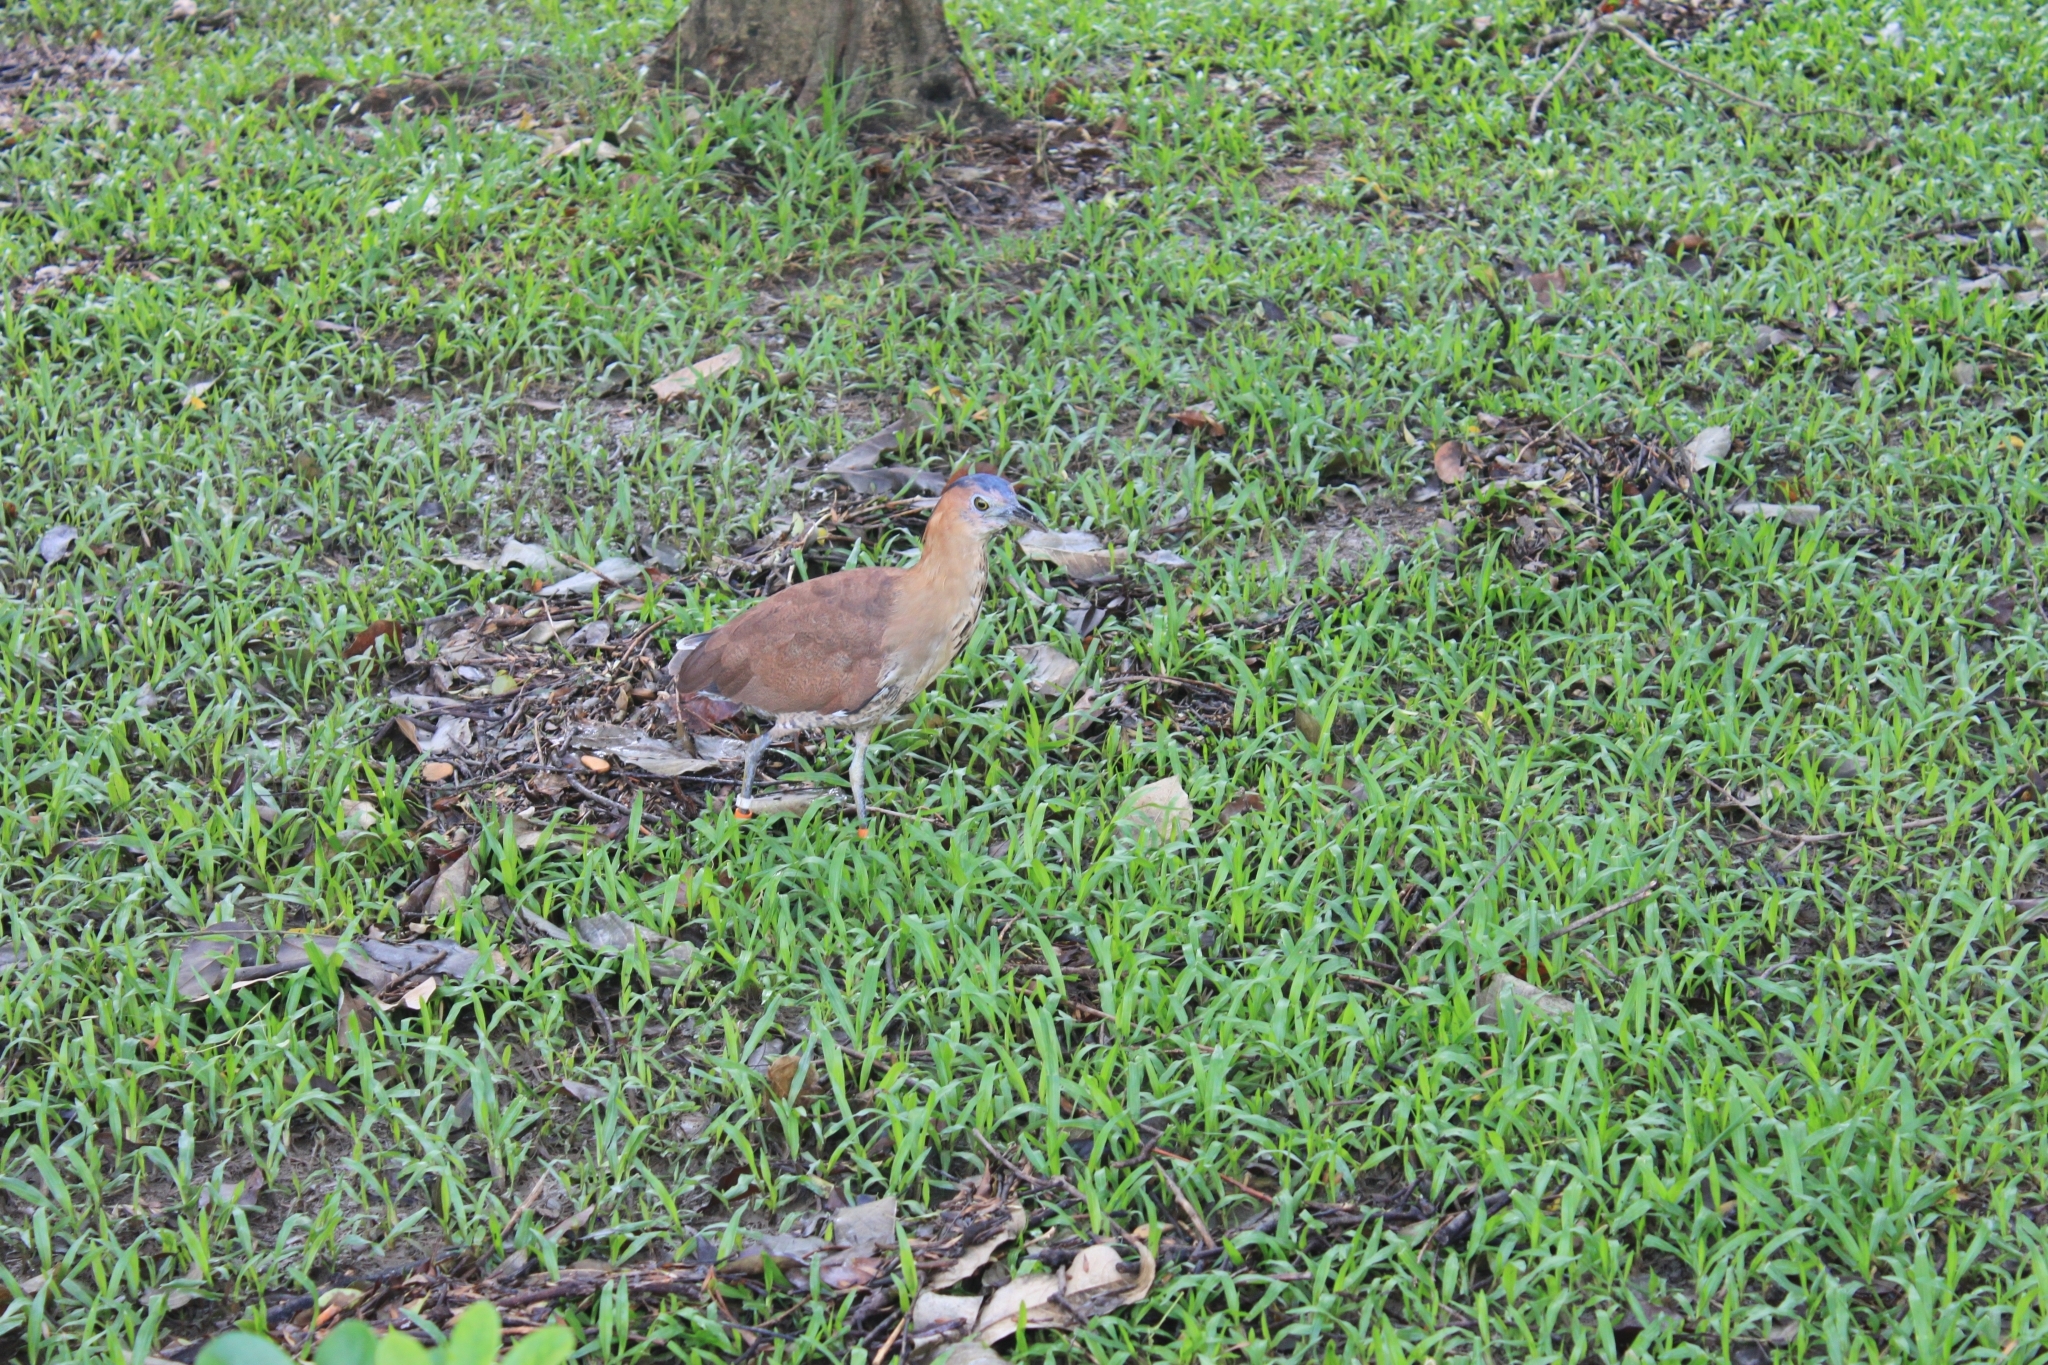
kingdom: Animalia
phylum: Chordata
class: Aves
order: Pelecaniformes
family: Ardeidae
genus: Gorsachius
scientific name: Gorsachius melanolophus
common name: Malayan night heron
